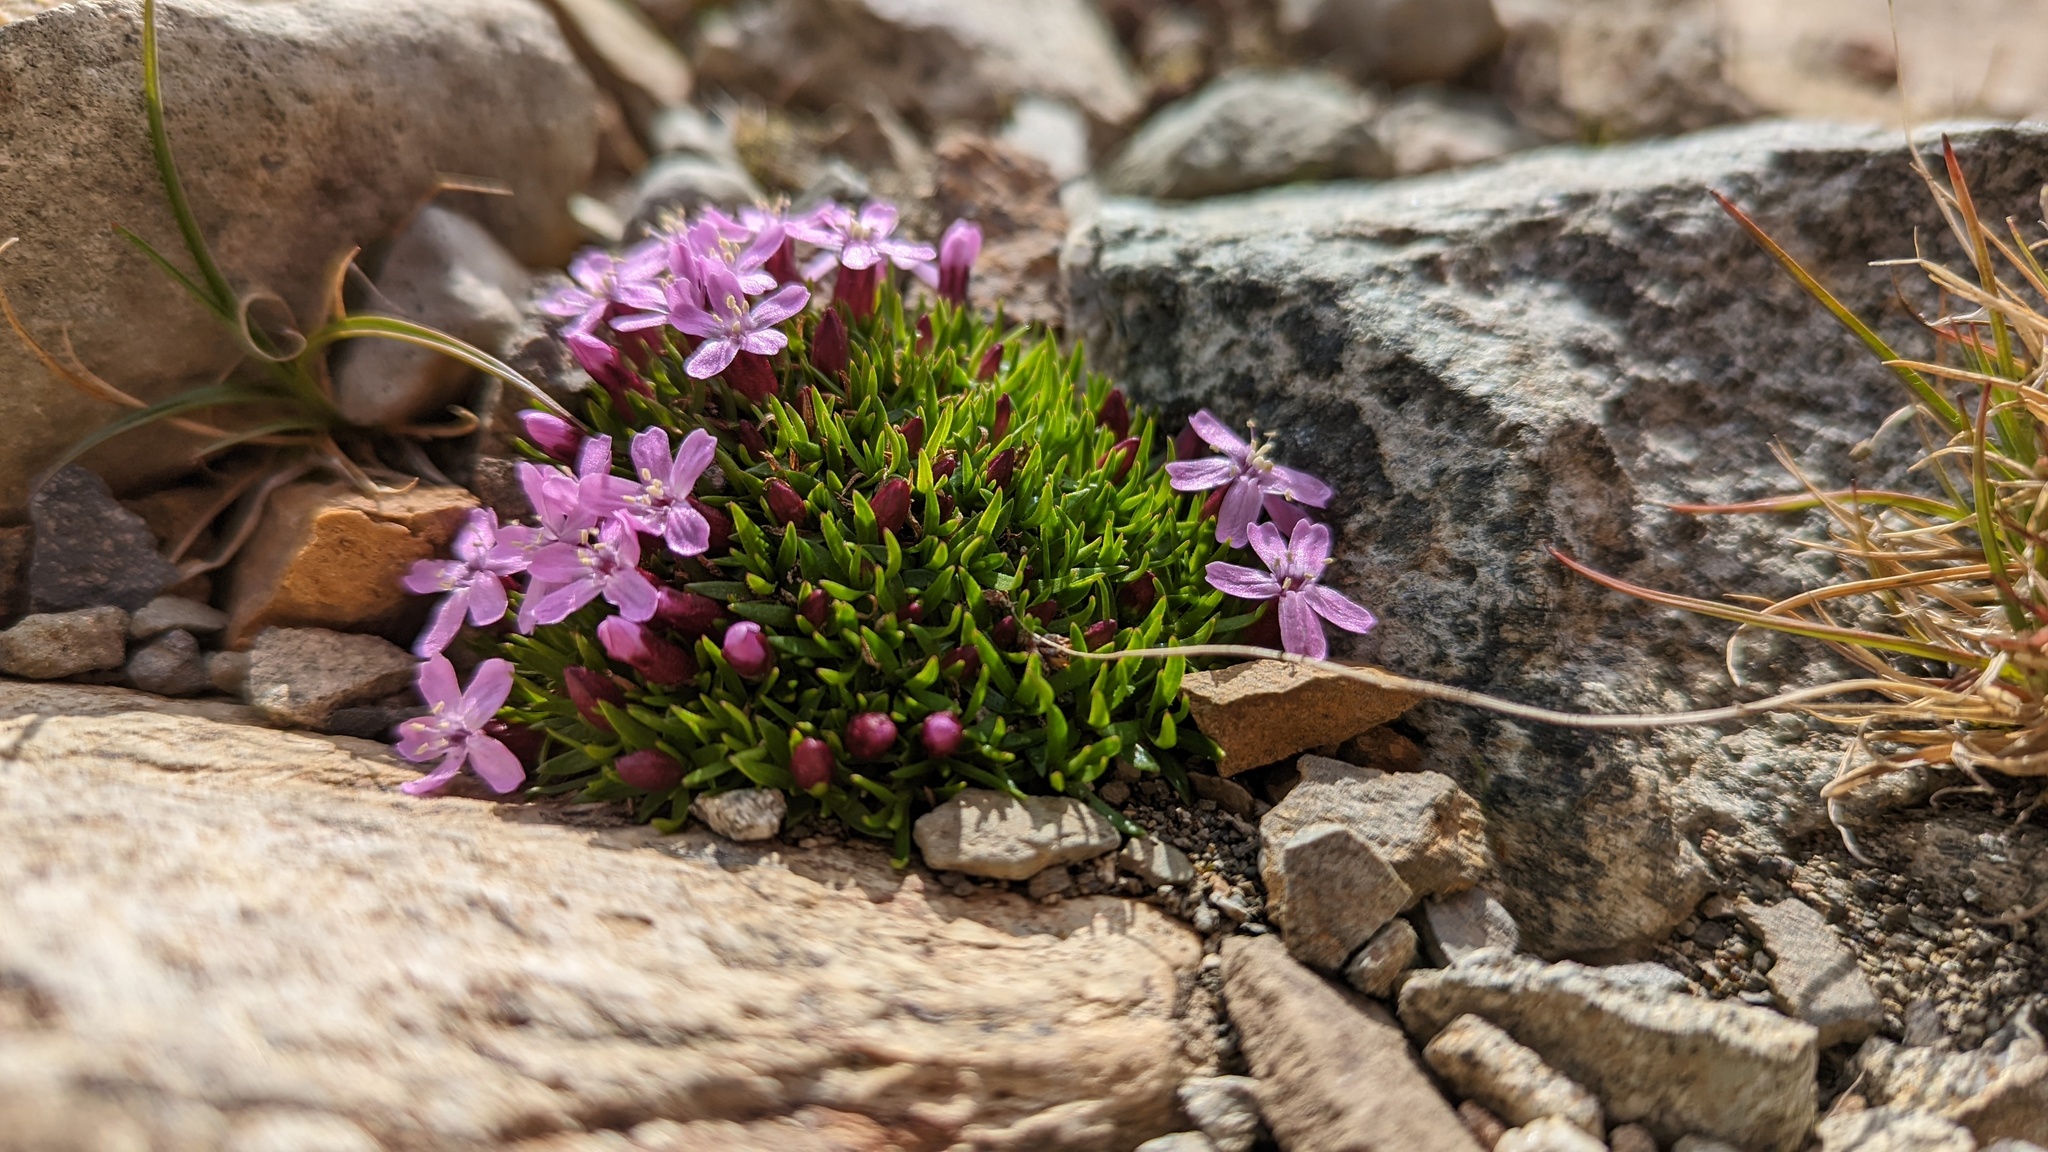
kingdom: Plantae
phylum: Tracheophyta
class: Magnoliopsida
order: Caryophyllales
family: Caryophyllaceae
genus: Silene
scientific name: Silene acaulis
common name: Moss campion
